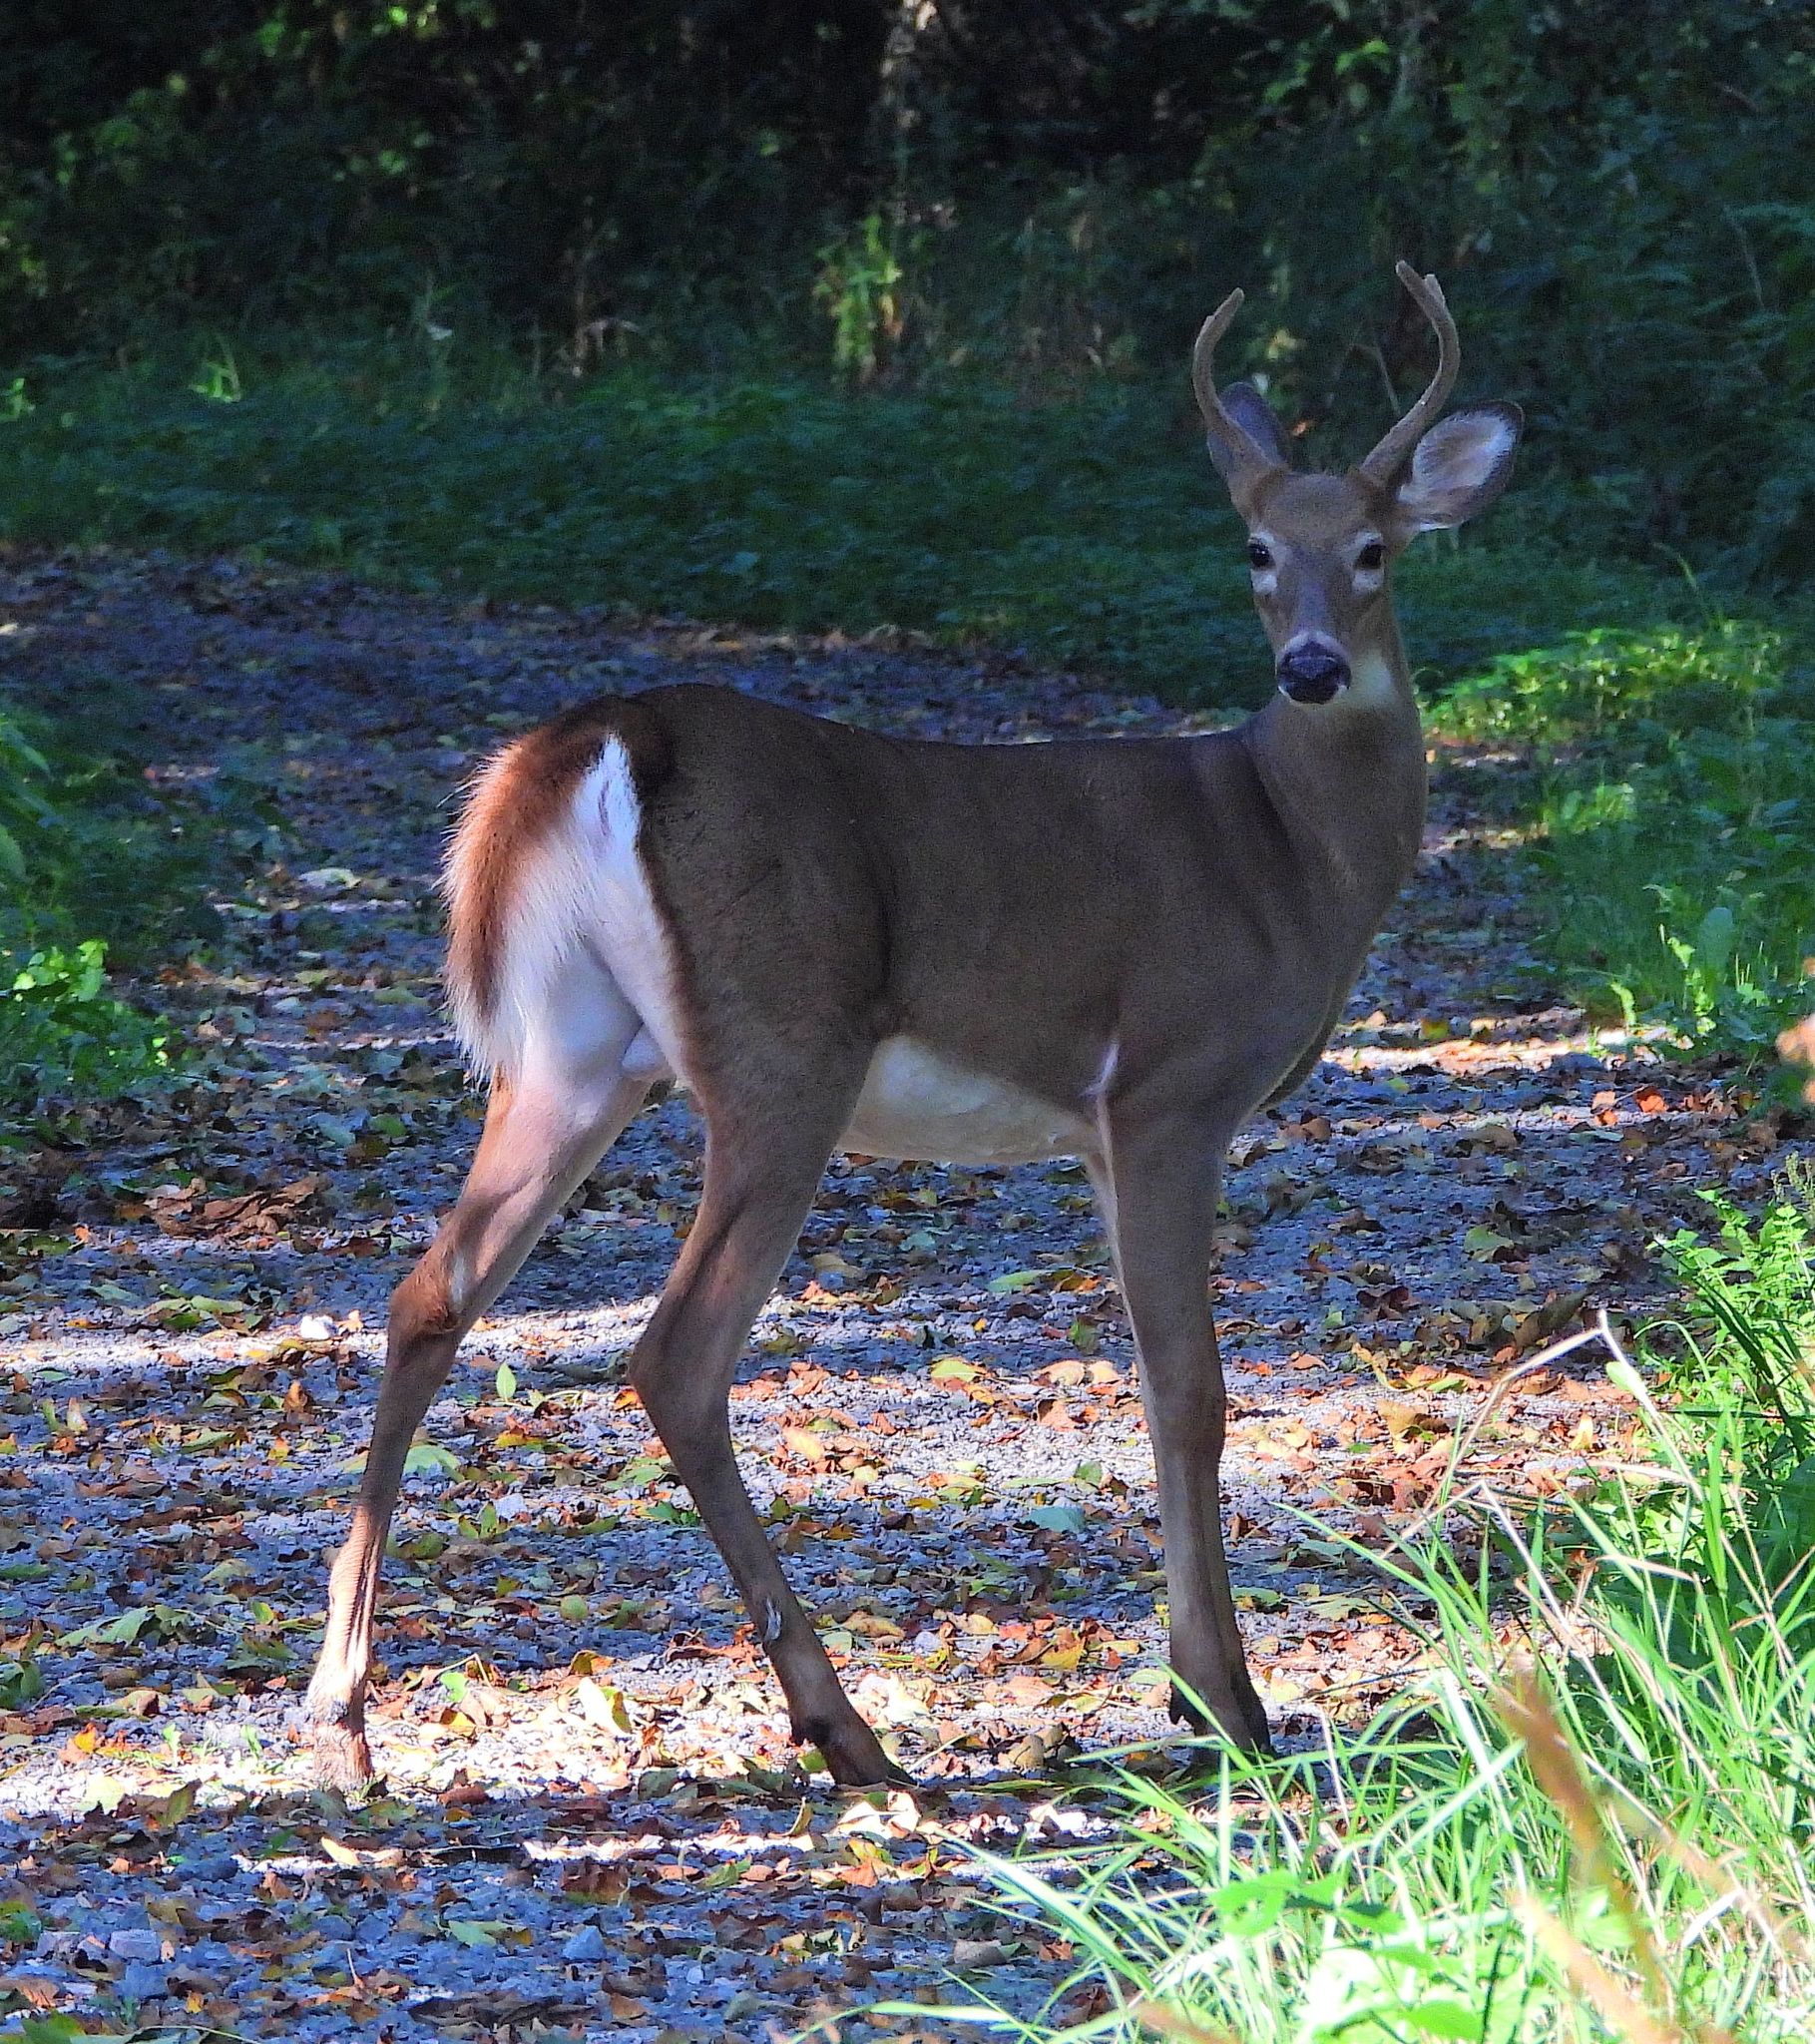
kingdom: Animalia
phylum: Chordata
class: Mammalia
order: Artiodactyla
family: Cervidae
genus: Odocoileus
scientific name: Odocoileus virginianus
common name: White-tailed deer
